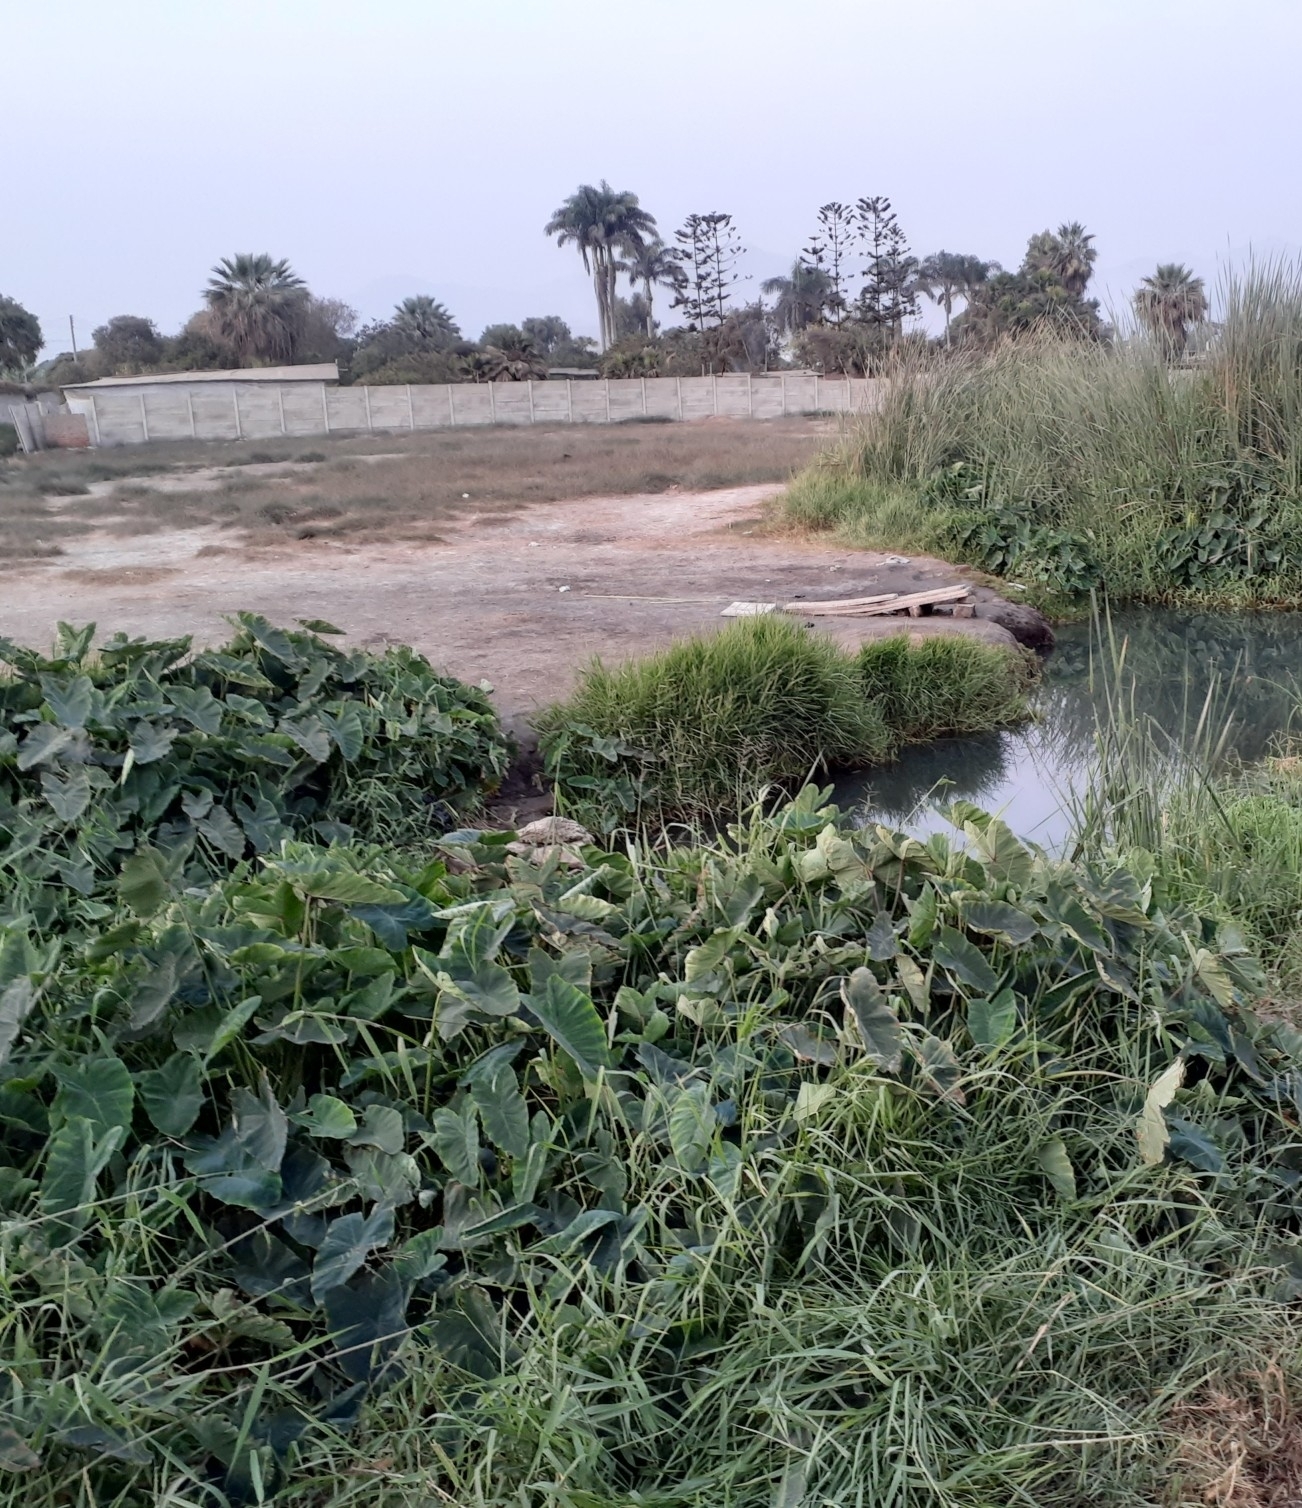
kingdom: Plantae
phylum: Tracheophyta
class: Liliopsida
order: Alismatales
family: Araceae
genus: Colocasia
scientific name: Colocasia esculenta
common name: Taro
